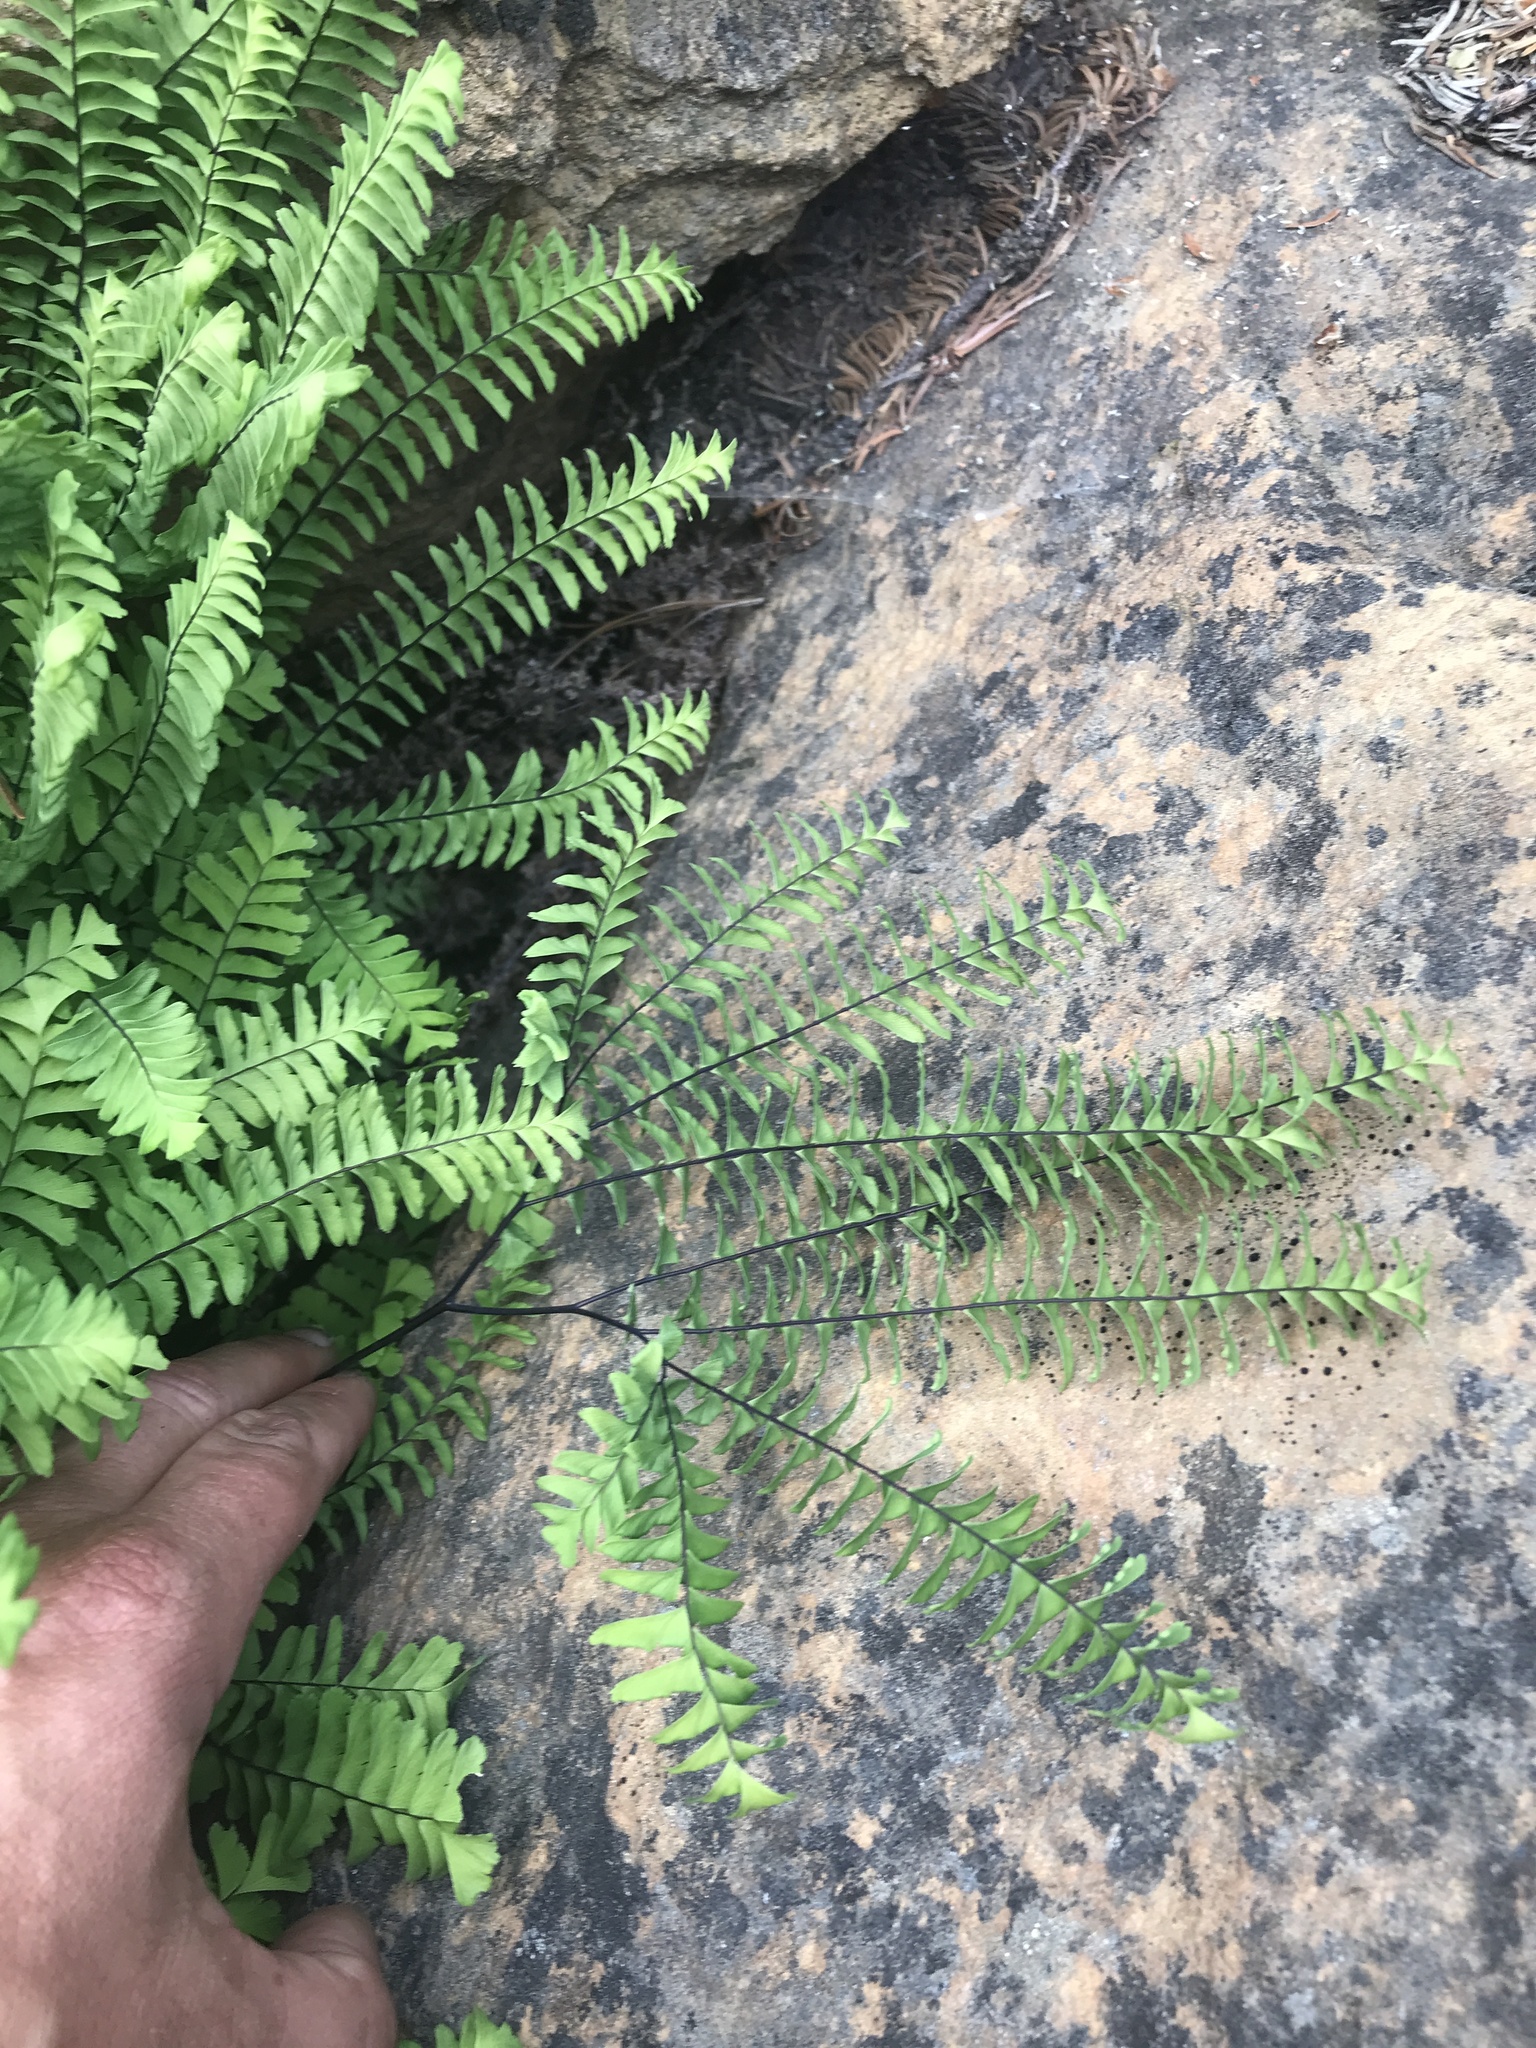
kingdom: Plantae
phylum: Tracheophyta
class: Polypodiopsida
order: Polypodiales
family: Pteridaceae
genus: Adiantum
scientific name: Adiantum aleuticum
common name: Aleutian maidenhair fern
